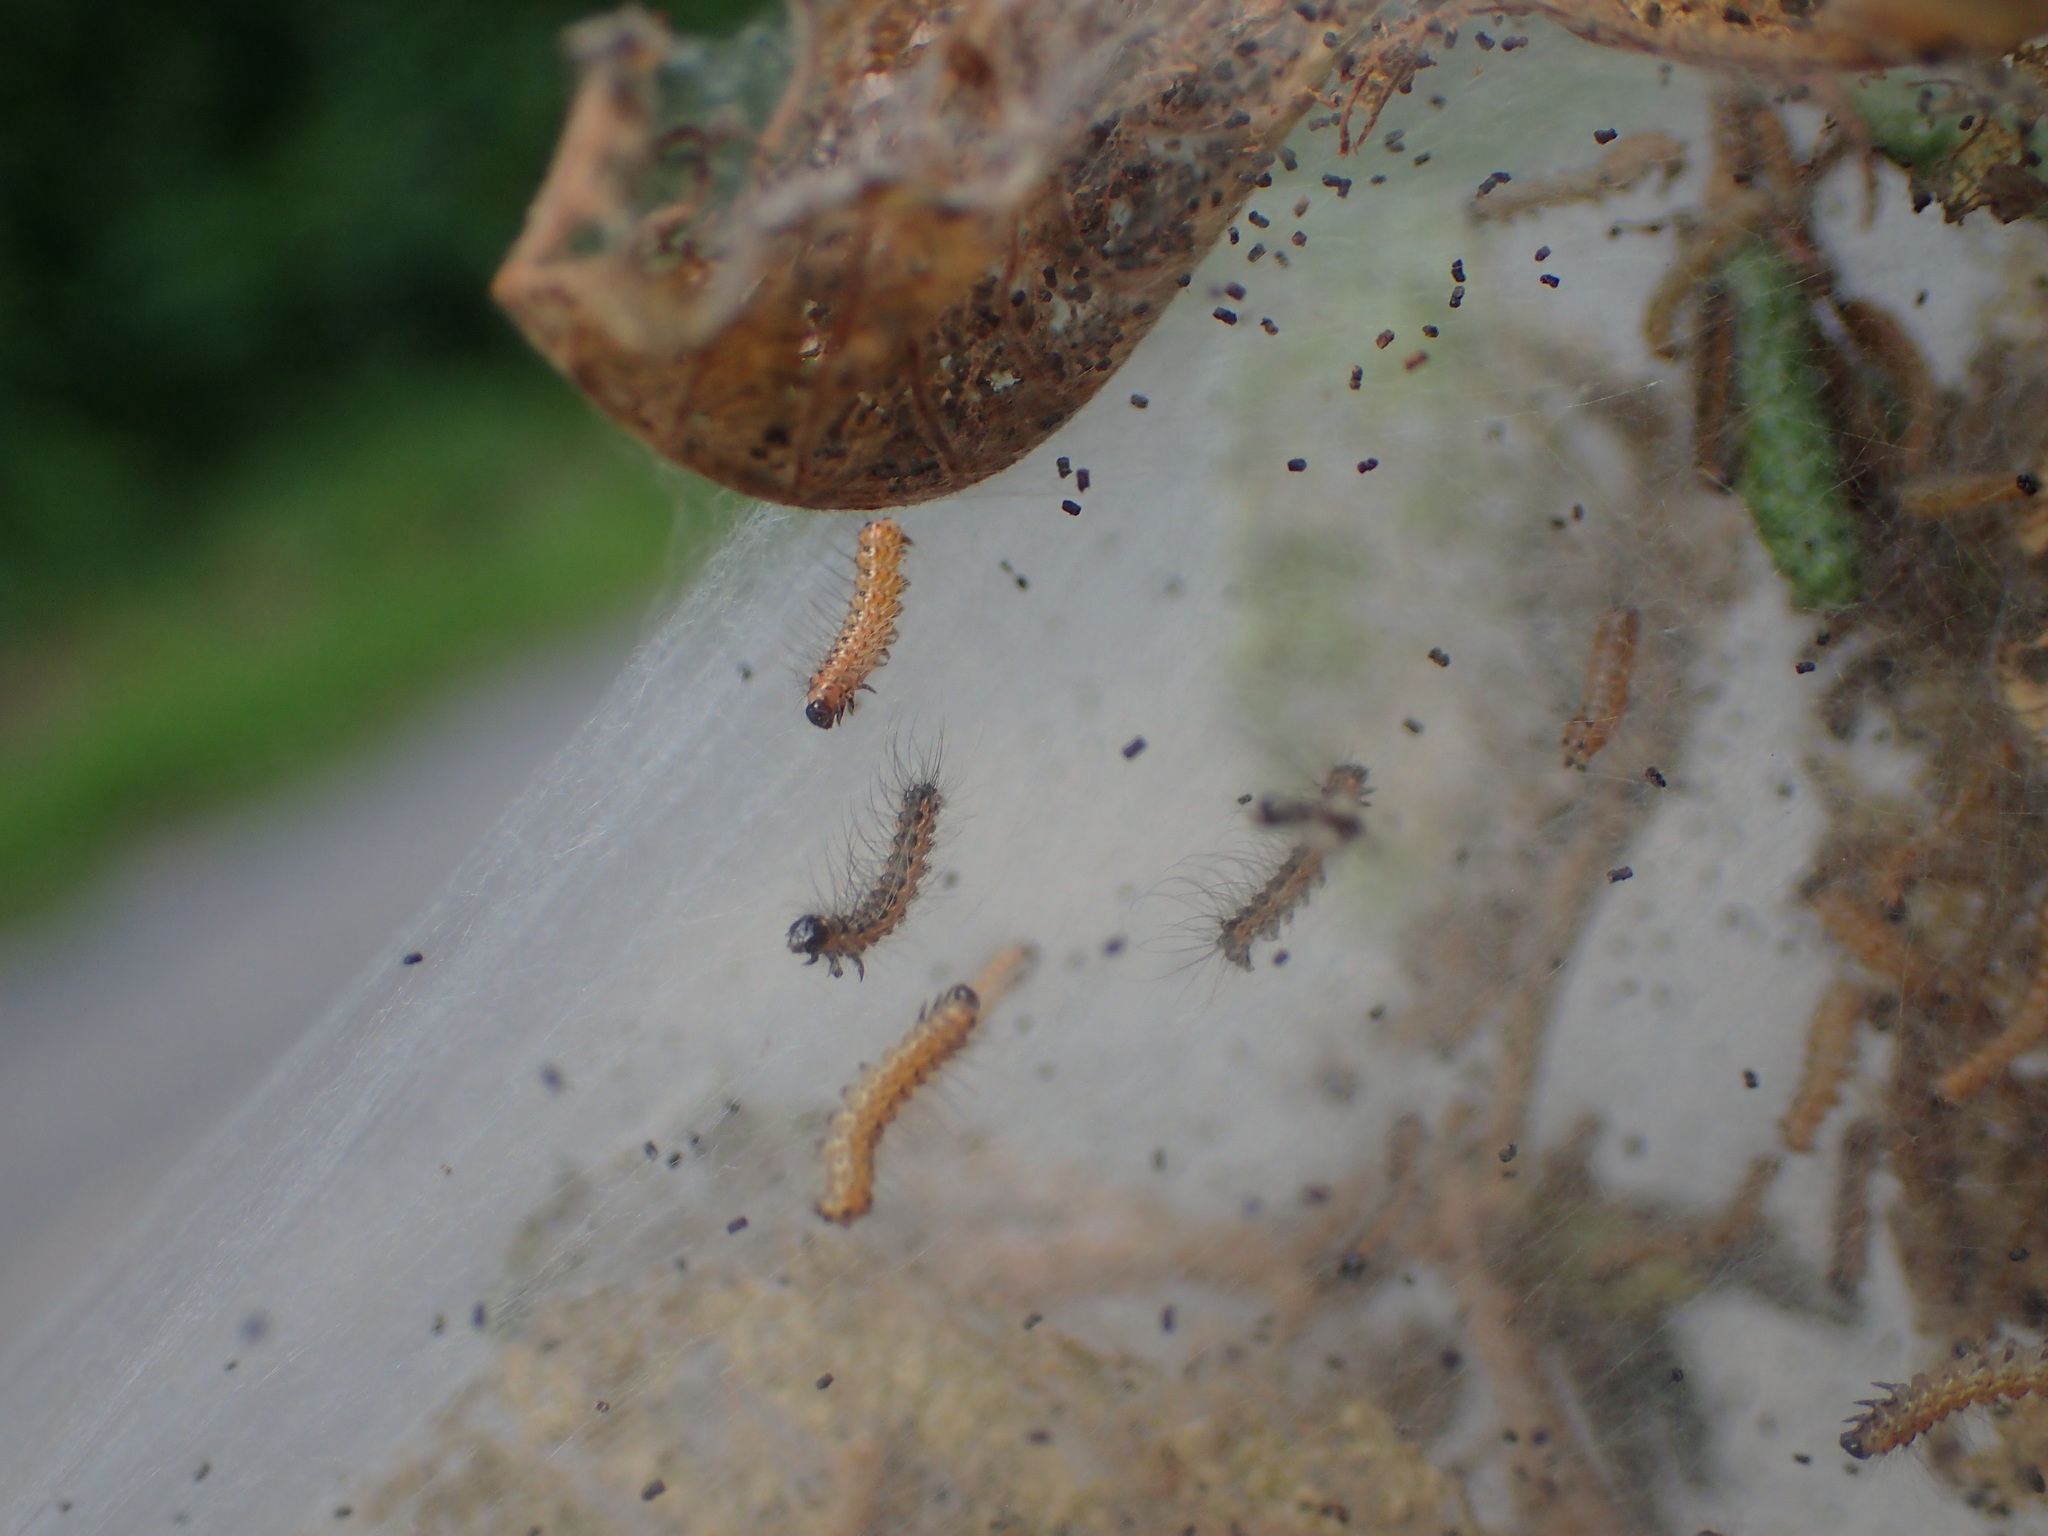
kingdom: Animalia
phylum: Arthropoda
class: Insecta
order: Lepidoptera
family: Erebidae
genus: Hyphantria
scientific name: Hyphantria cunea
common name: American white moth
